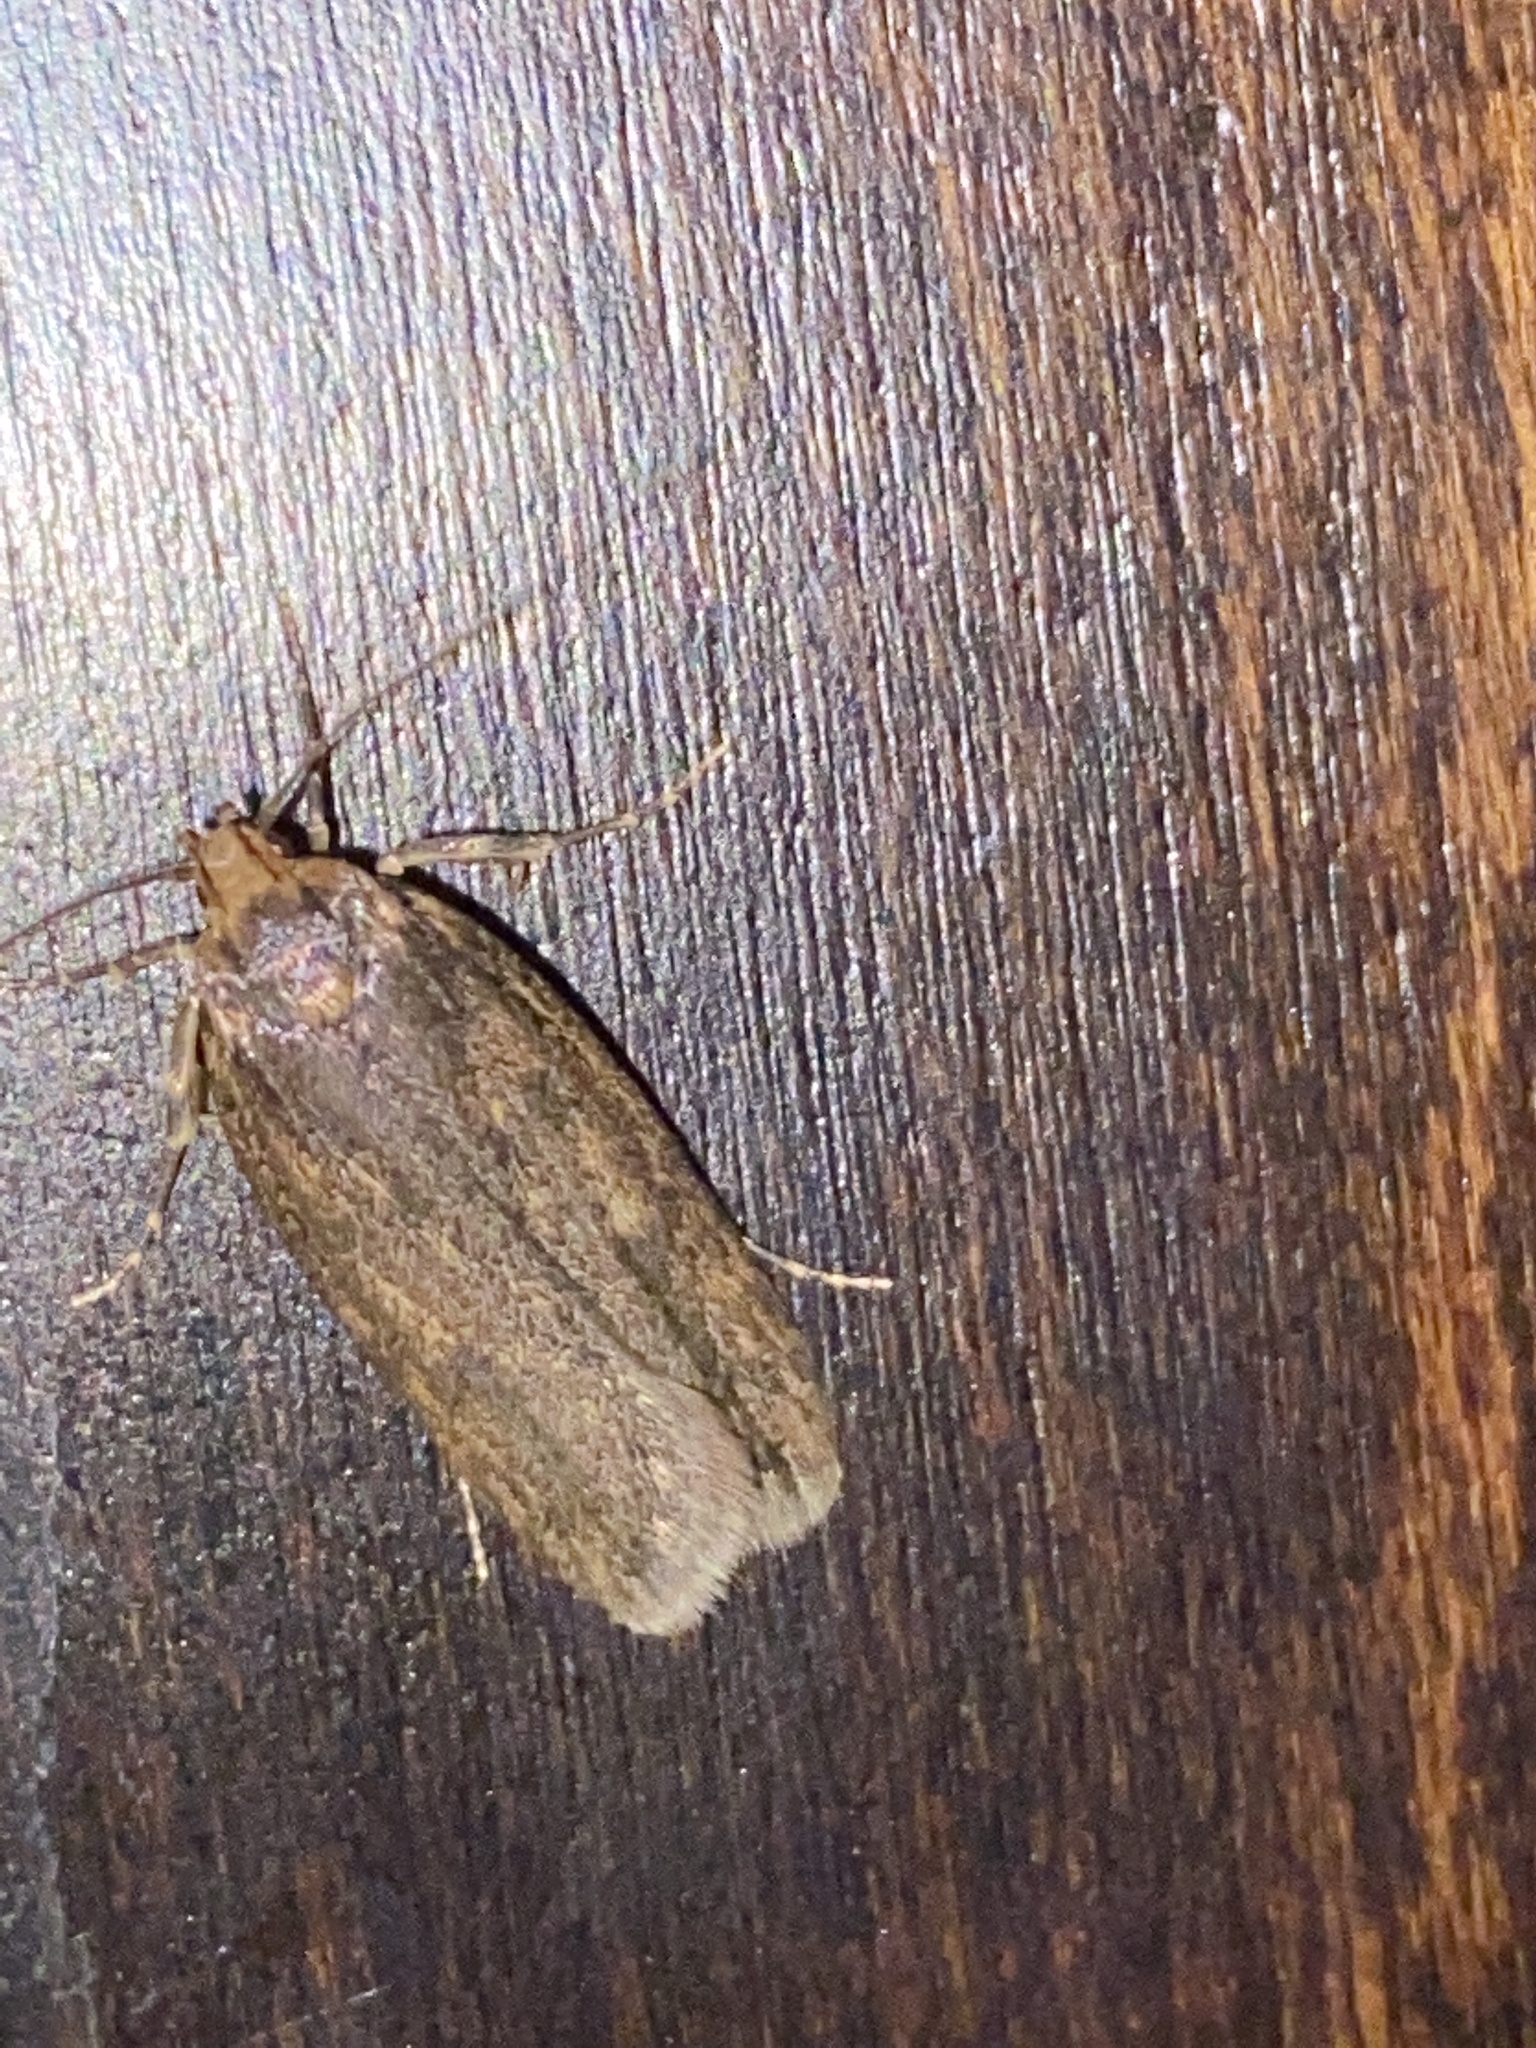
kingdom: Animalia
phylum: Arthropoda
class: Insecta
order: Lepidoptera
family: Oecophoridae
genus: Hofmannophila
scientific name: Hofmannophila pseudospretella
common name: Brown house moth
